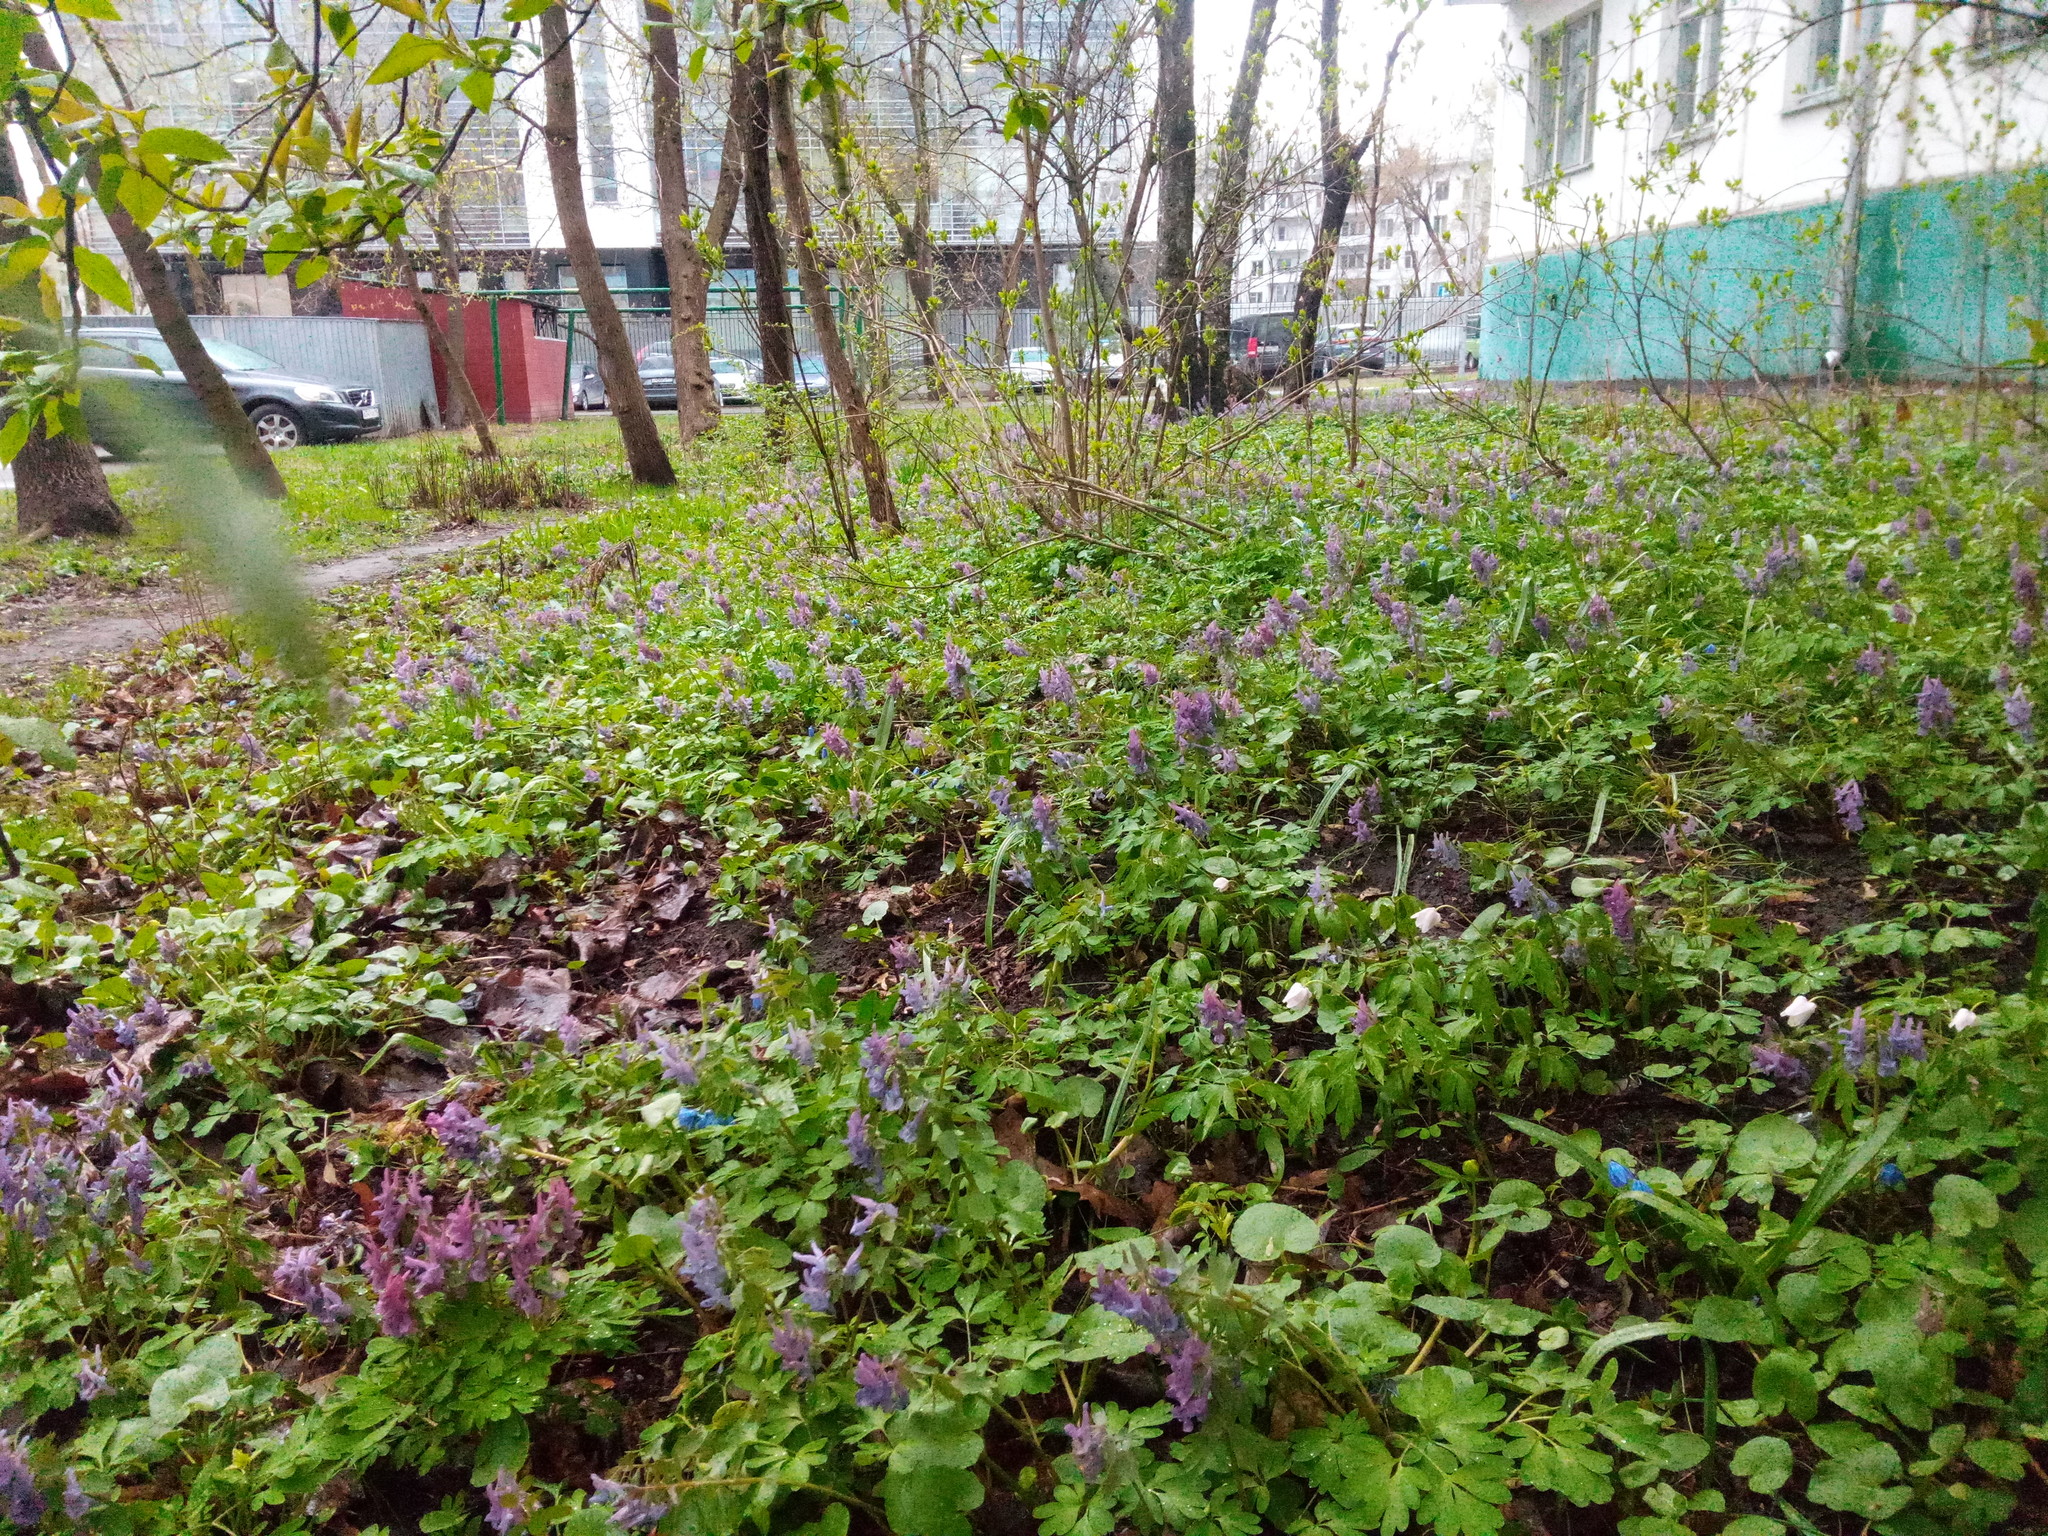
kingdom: Plantae
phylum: Tracheophyta
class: Magnoliopsida
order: Ranunculales
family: Papaveraceae
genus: Corydalis
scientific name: Corydalis solida
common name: Bird-in-a-bush
